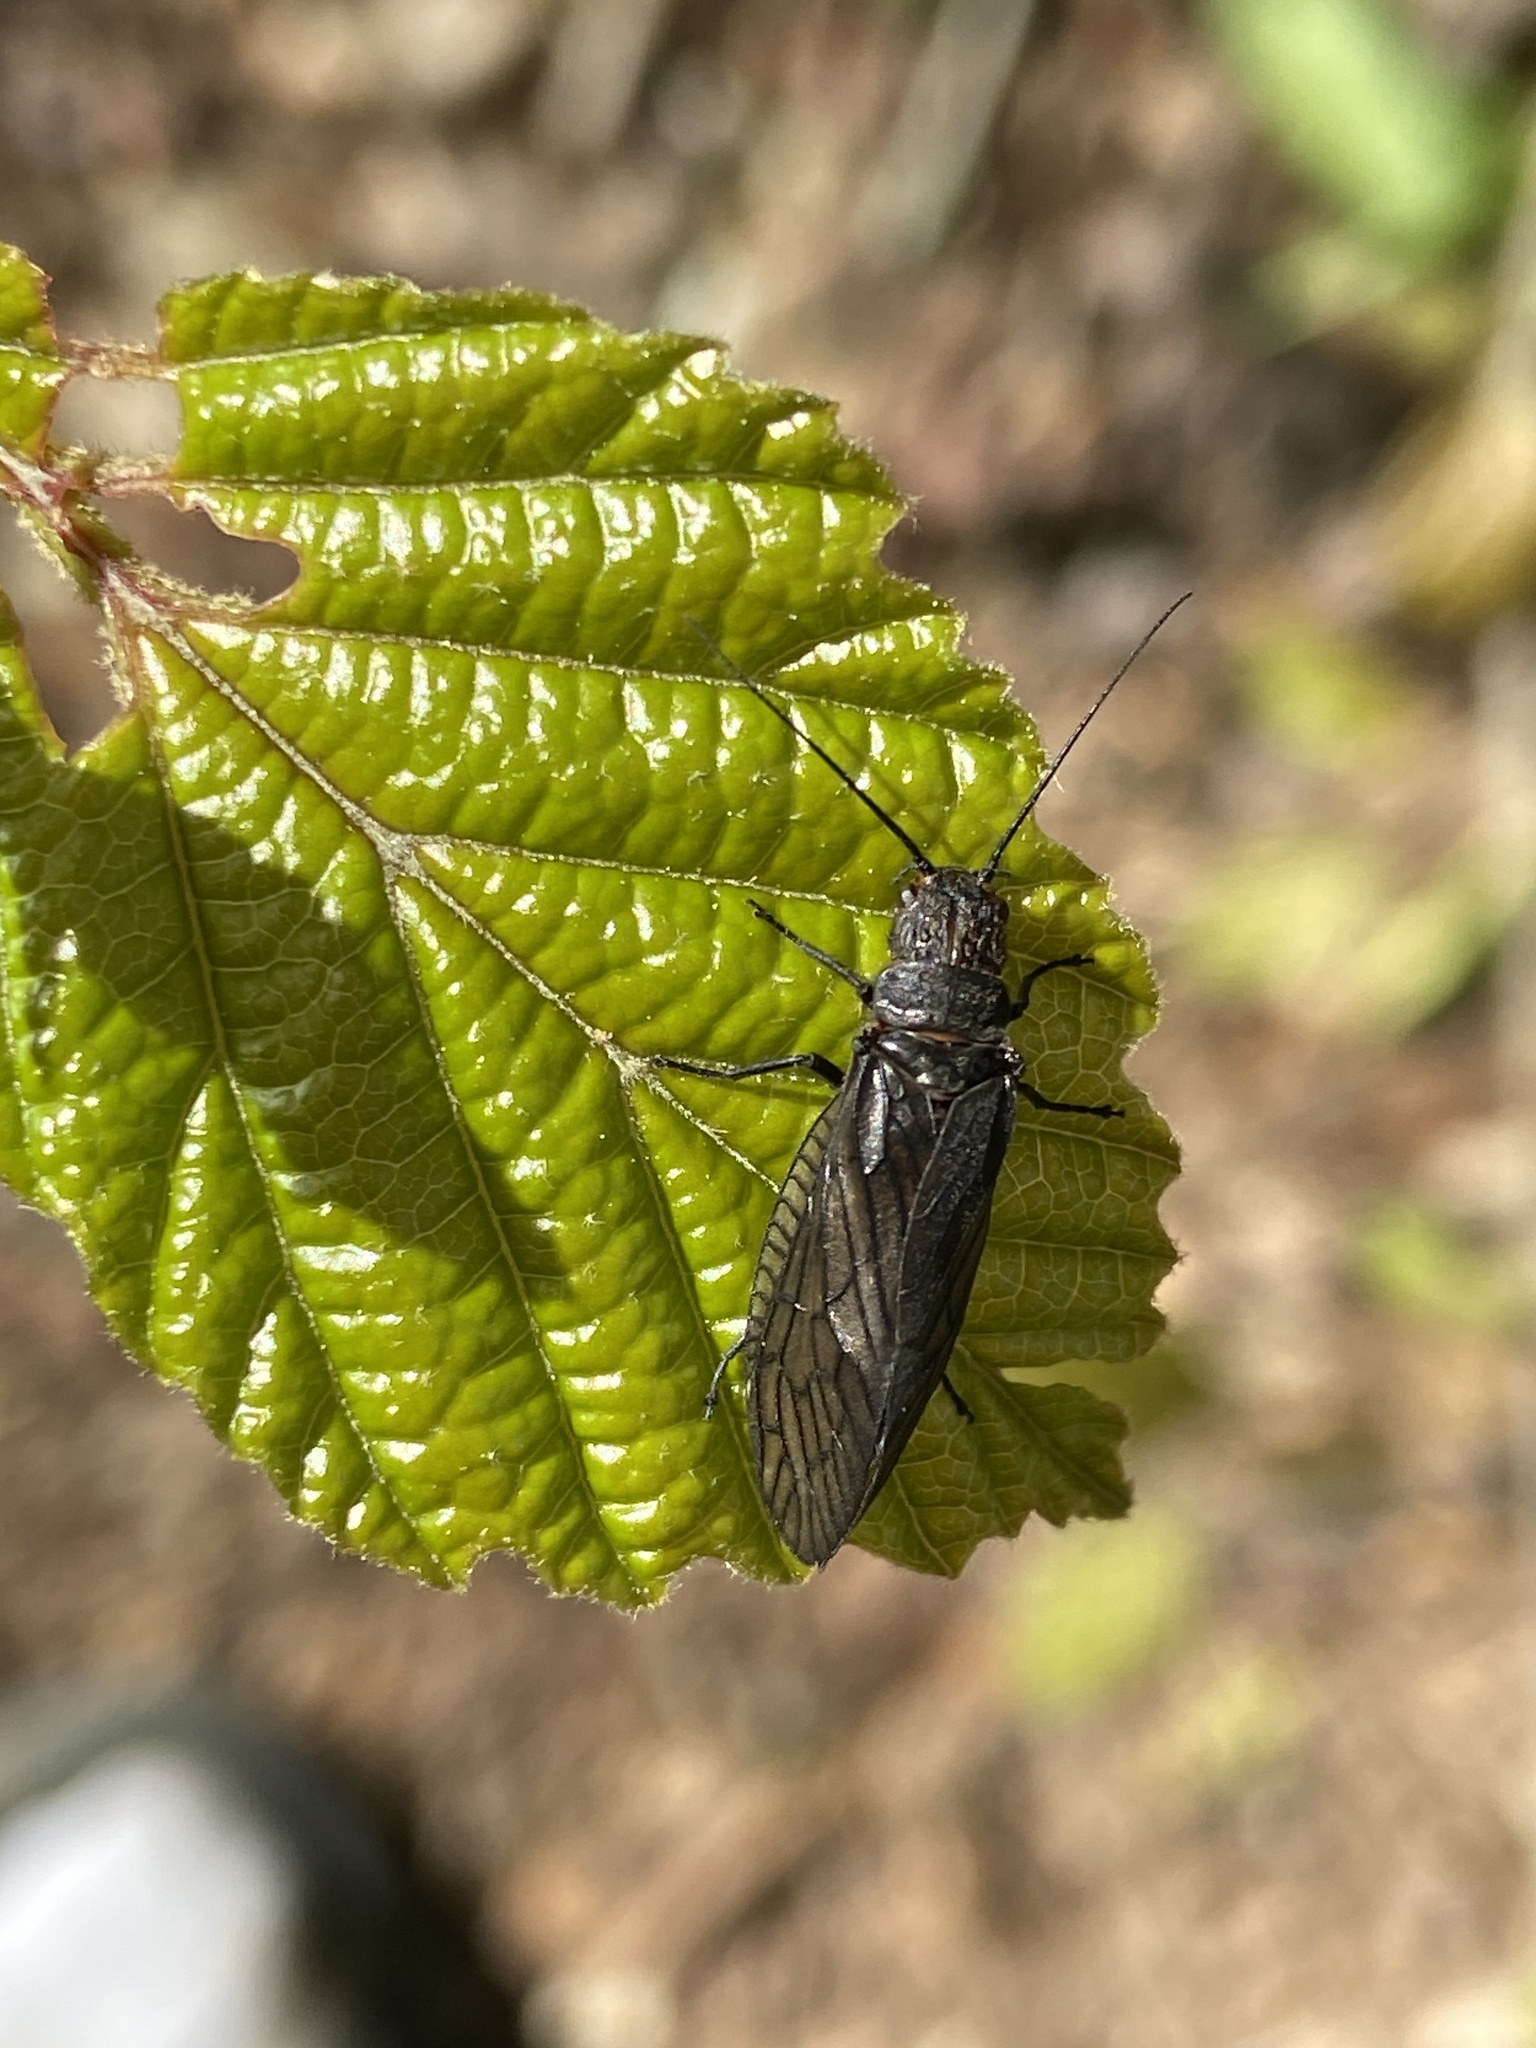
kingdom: Animalia
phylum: Arthropoda
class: Insecta
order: Megaloptera
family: Sialidae
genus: Sialis
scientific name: Sialis
